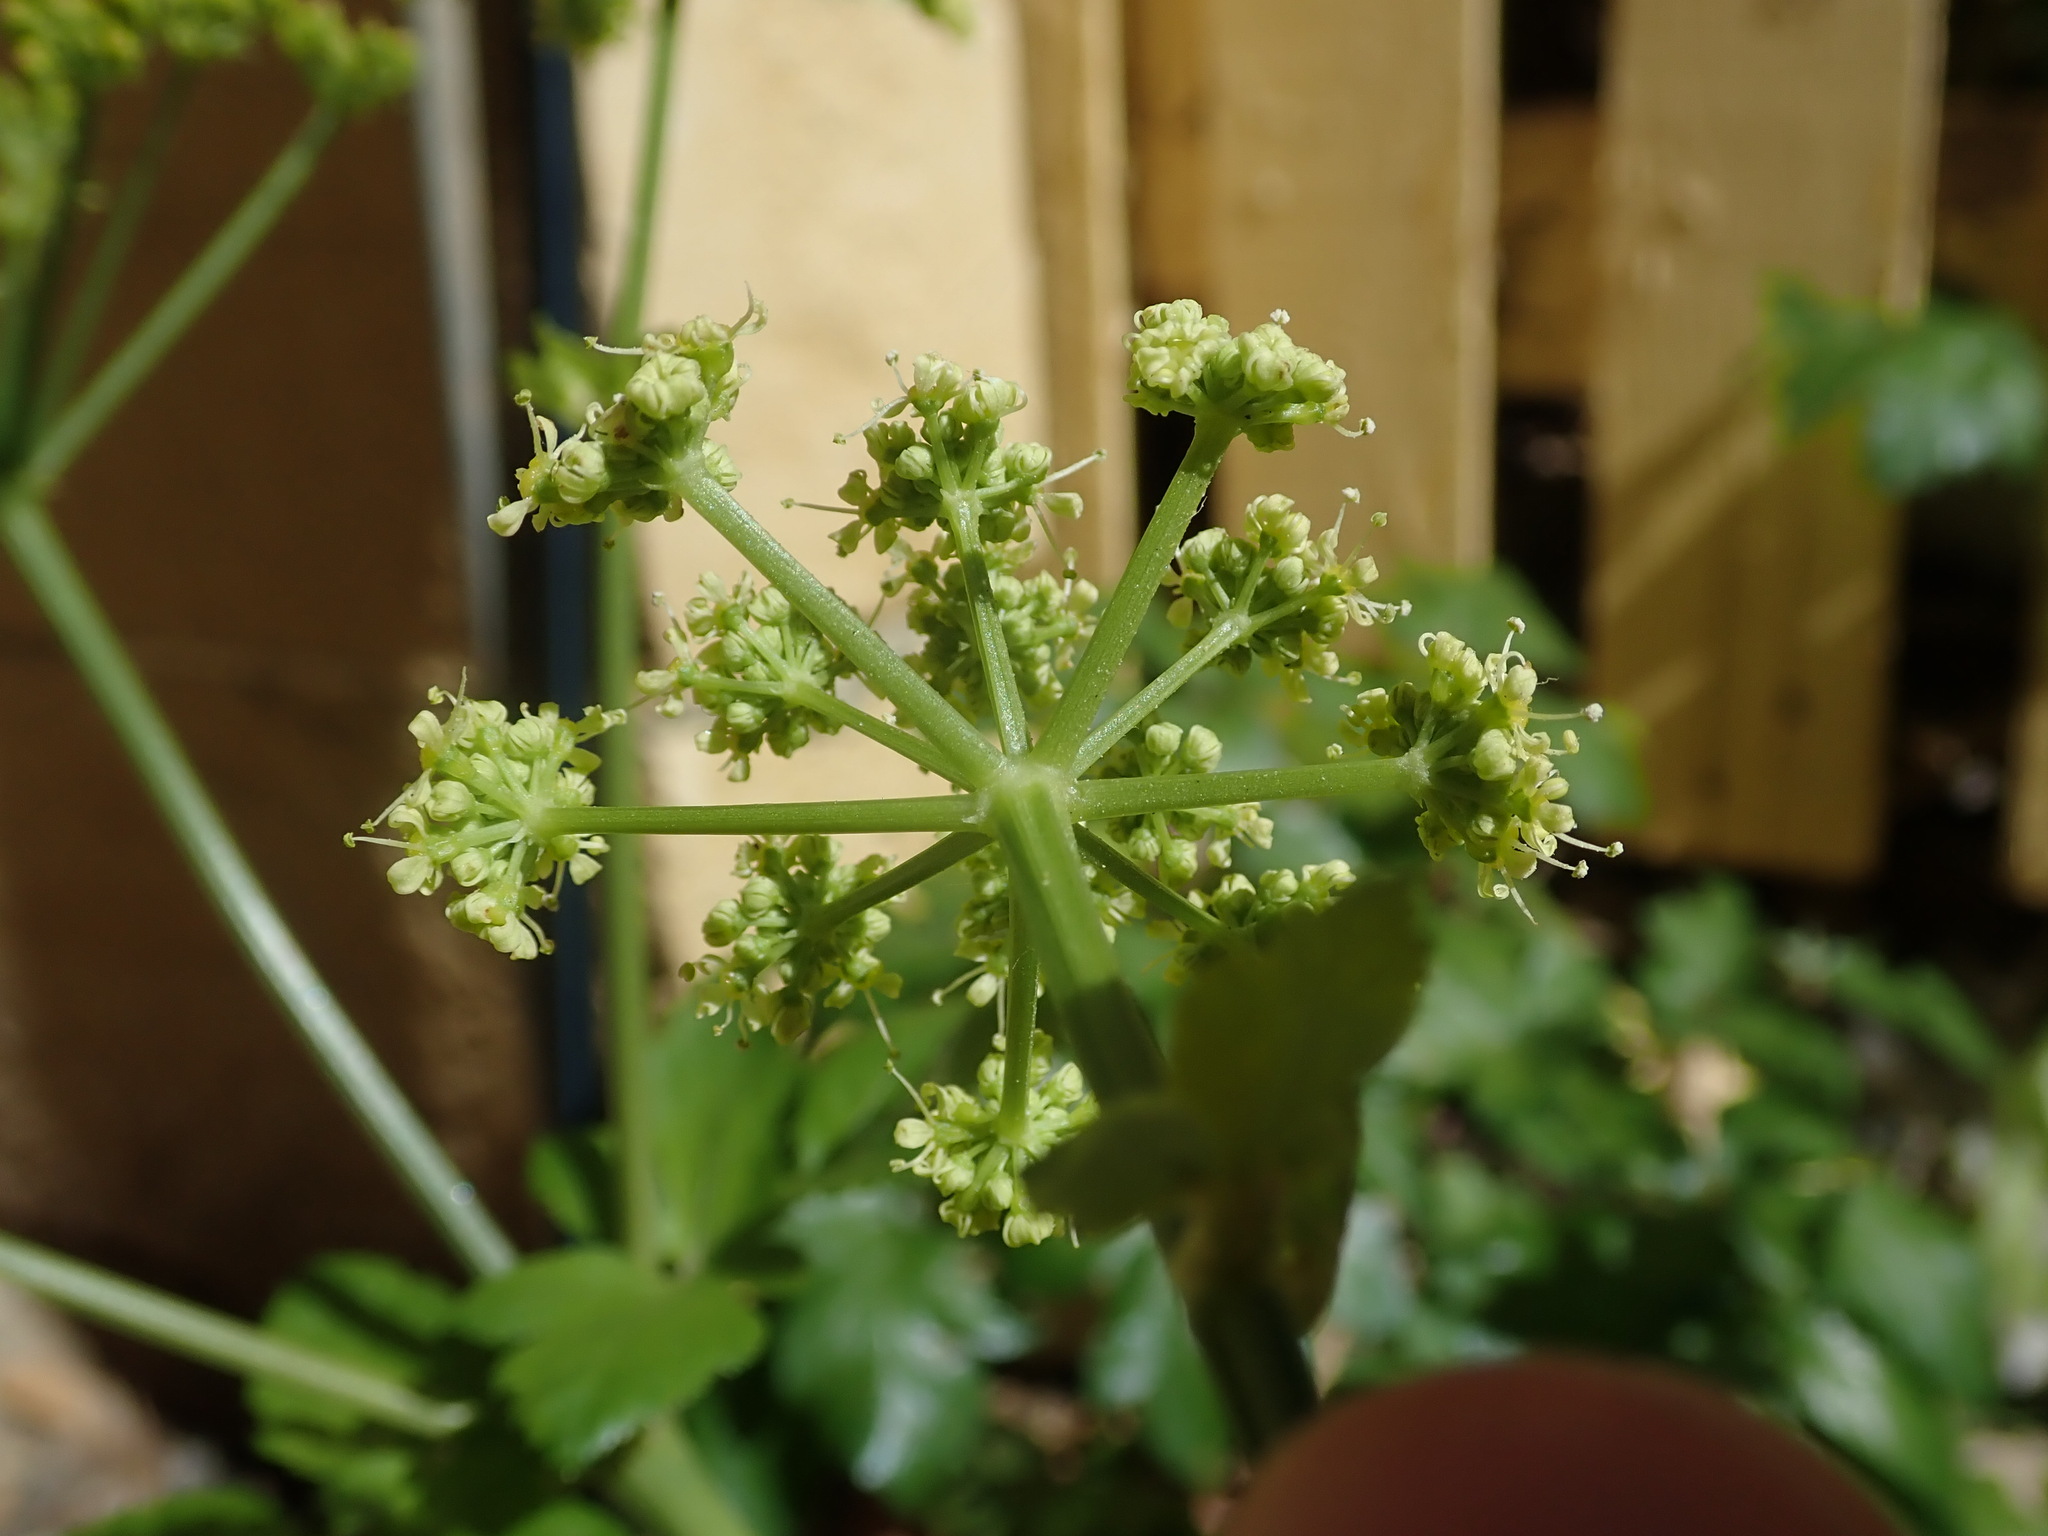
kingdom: Plantae
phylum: Tracheophyta
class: Magnoliopsida
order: Apiales
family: Apiaceae
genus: Smyrnium
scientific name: Smyrnium olusatrum
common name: Alexanders
